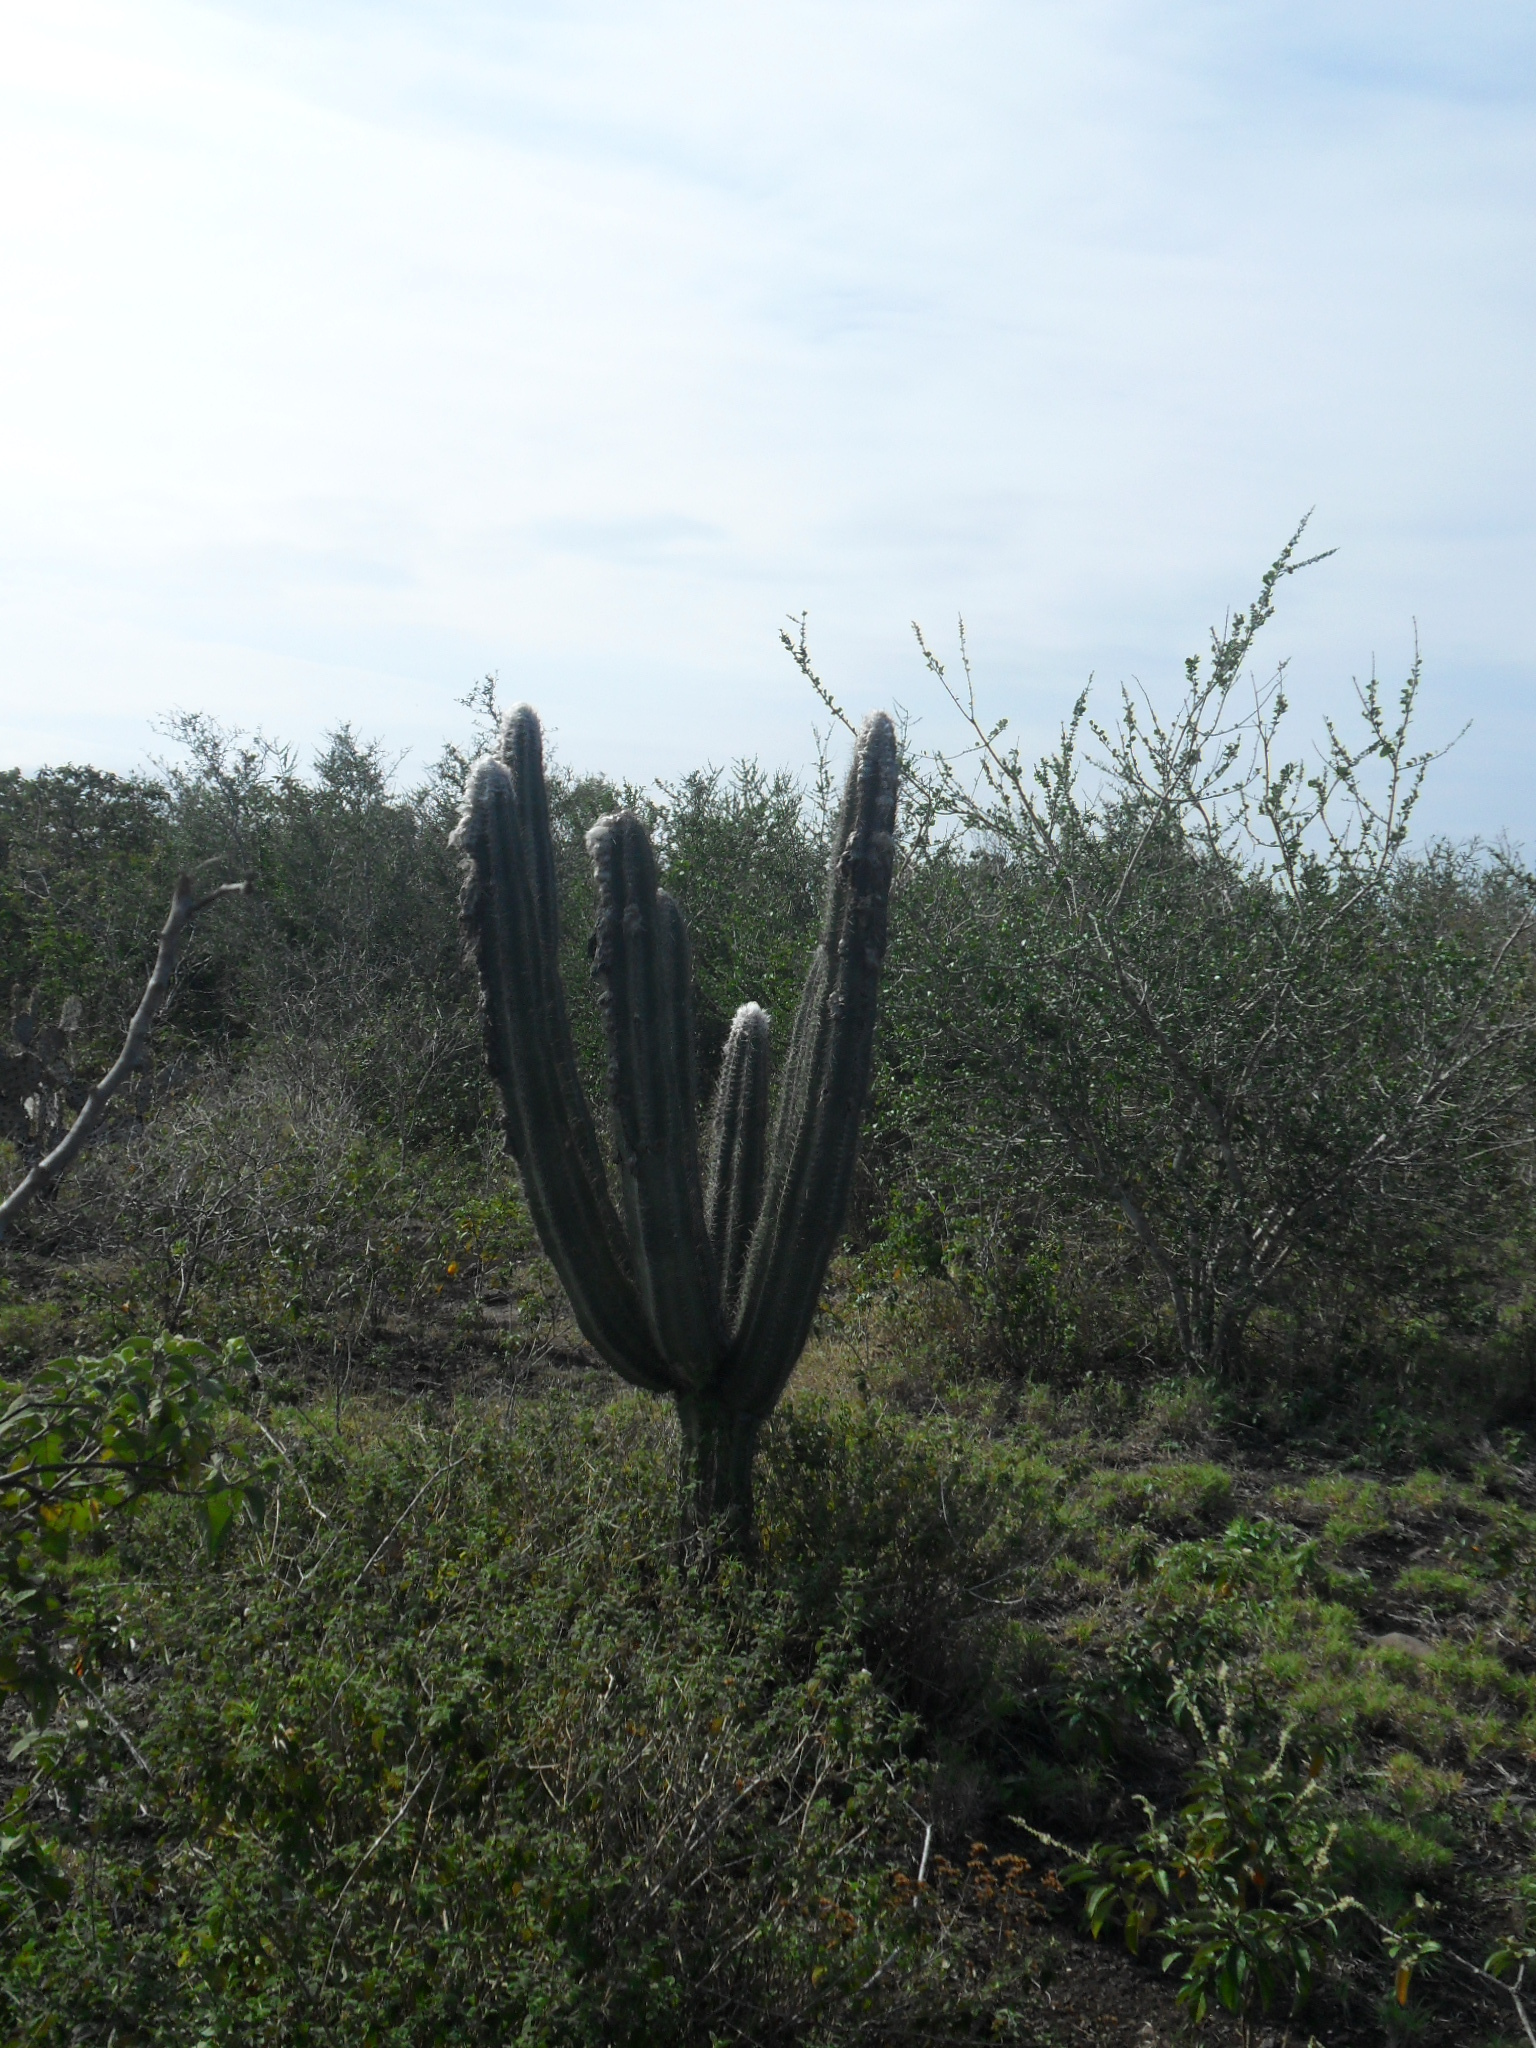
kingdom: Plantae
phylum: Tracheophyta
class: Magnoliopsida
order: Caryophyllales
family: Cactaceae
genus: Pilosocereus
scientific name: Pilosocereus leucocephalus
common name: Old man cactus
